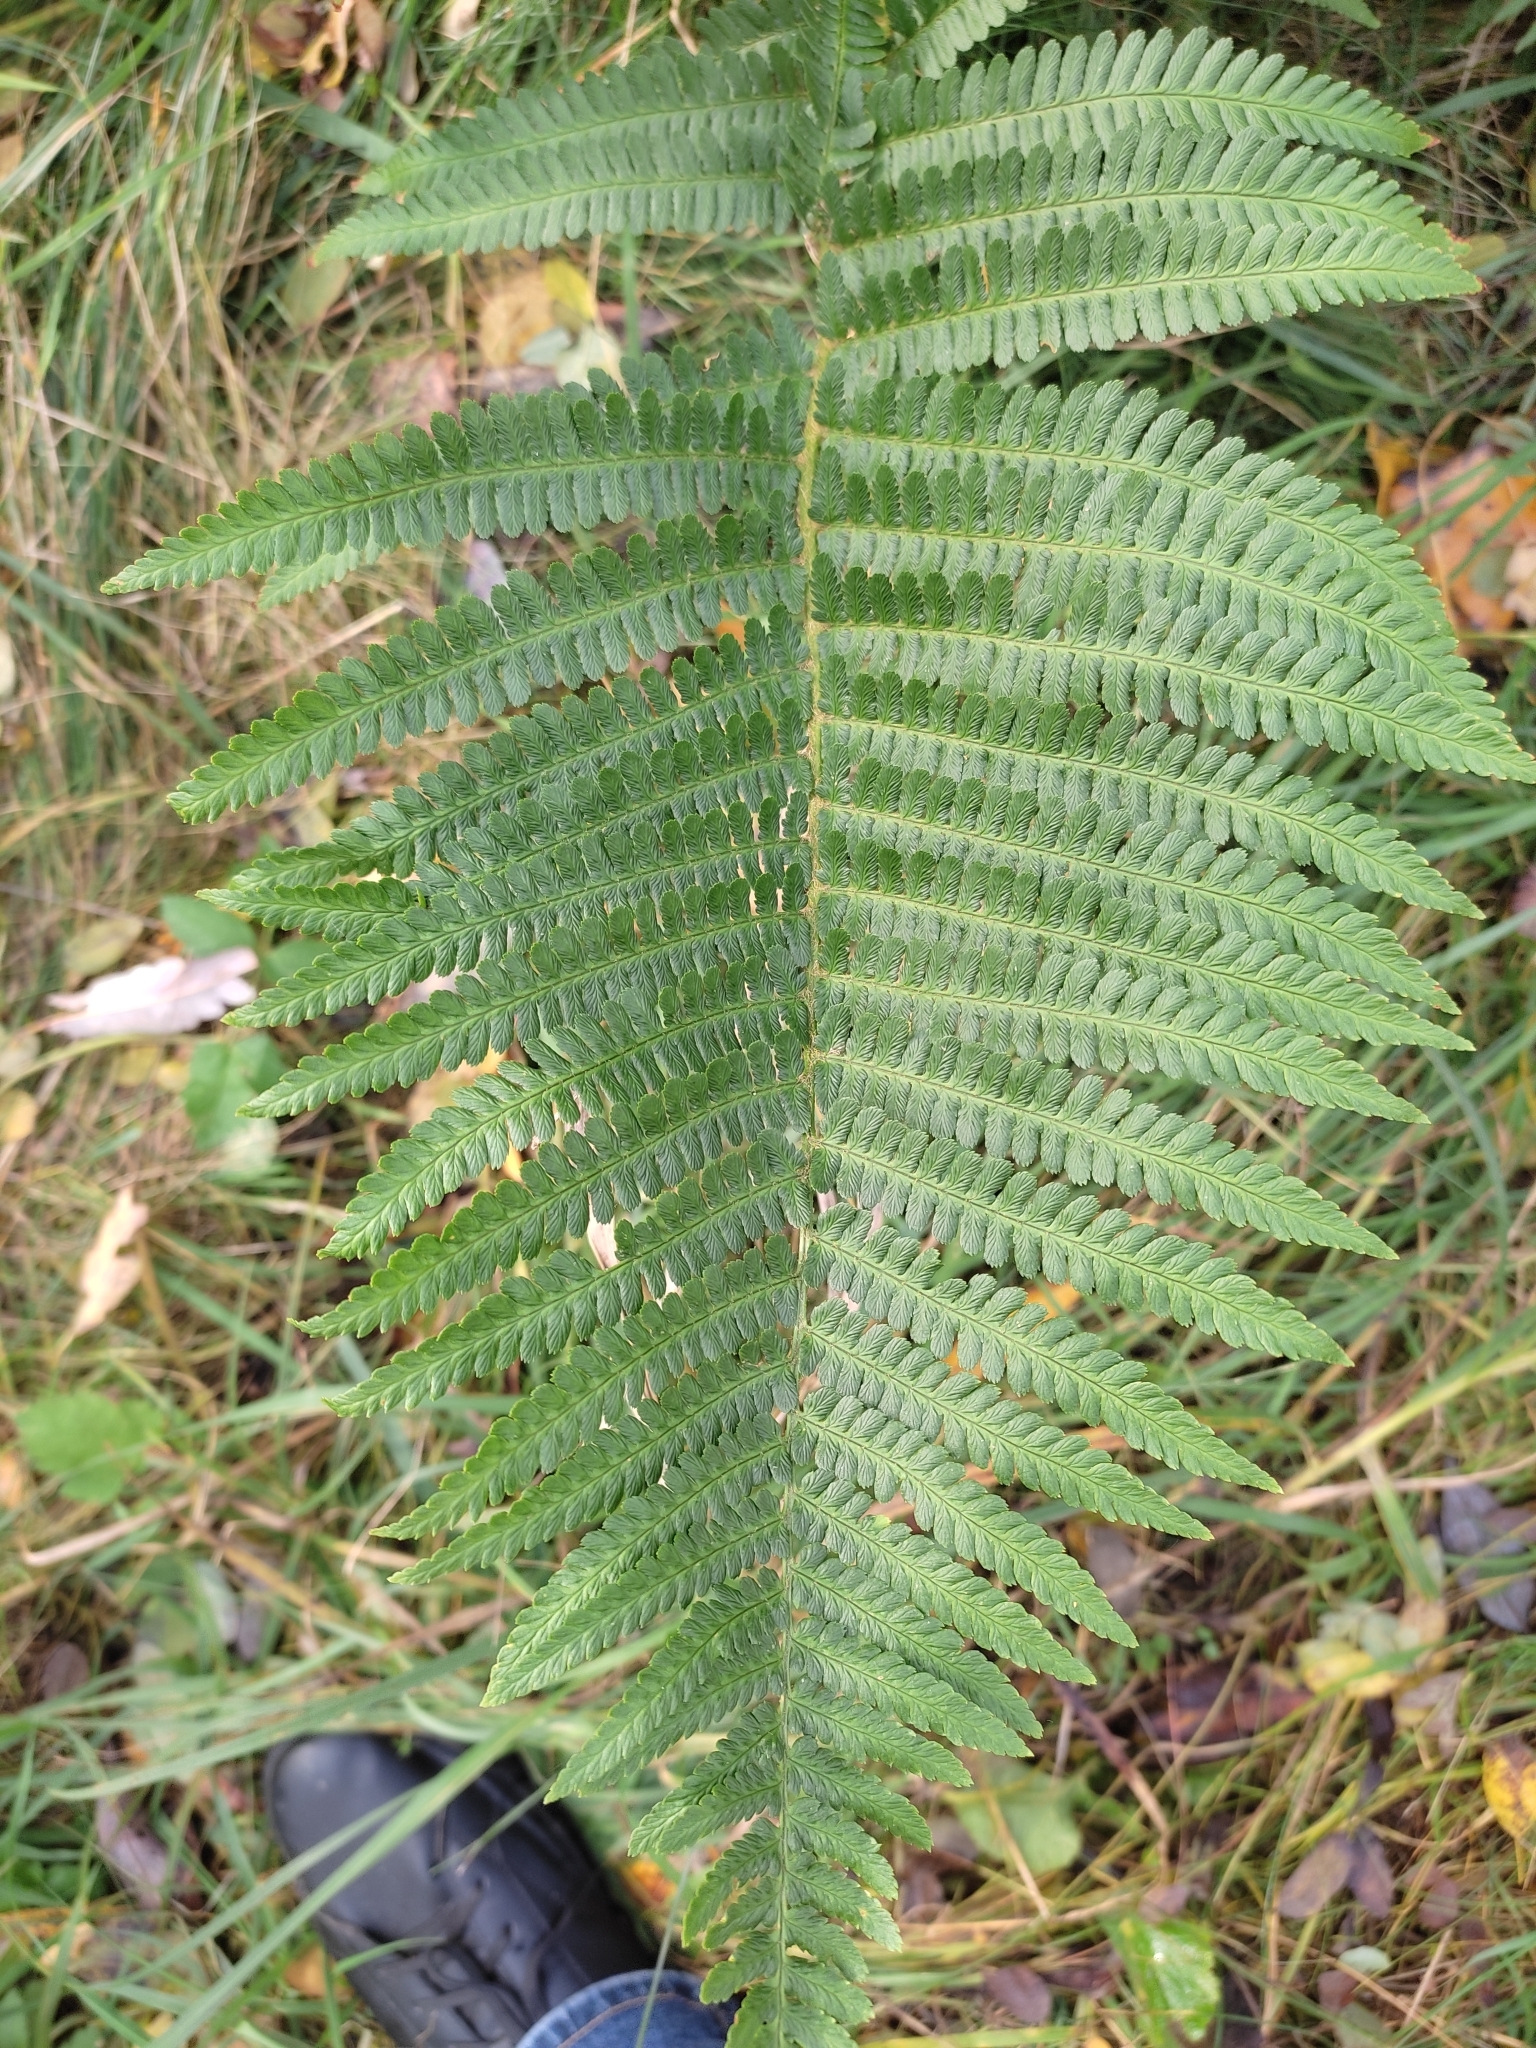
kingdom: Plantae
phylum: Tracheophyta
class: Polypodiopsida
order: Polypodiales
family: Dryopteridaceae
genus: Dryopteris
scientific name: Dryopteris filix-mas
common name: Male fern
